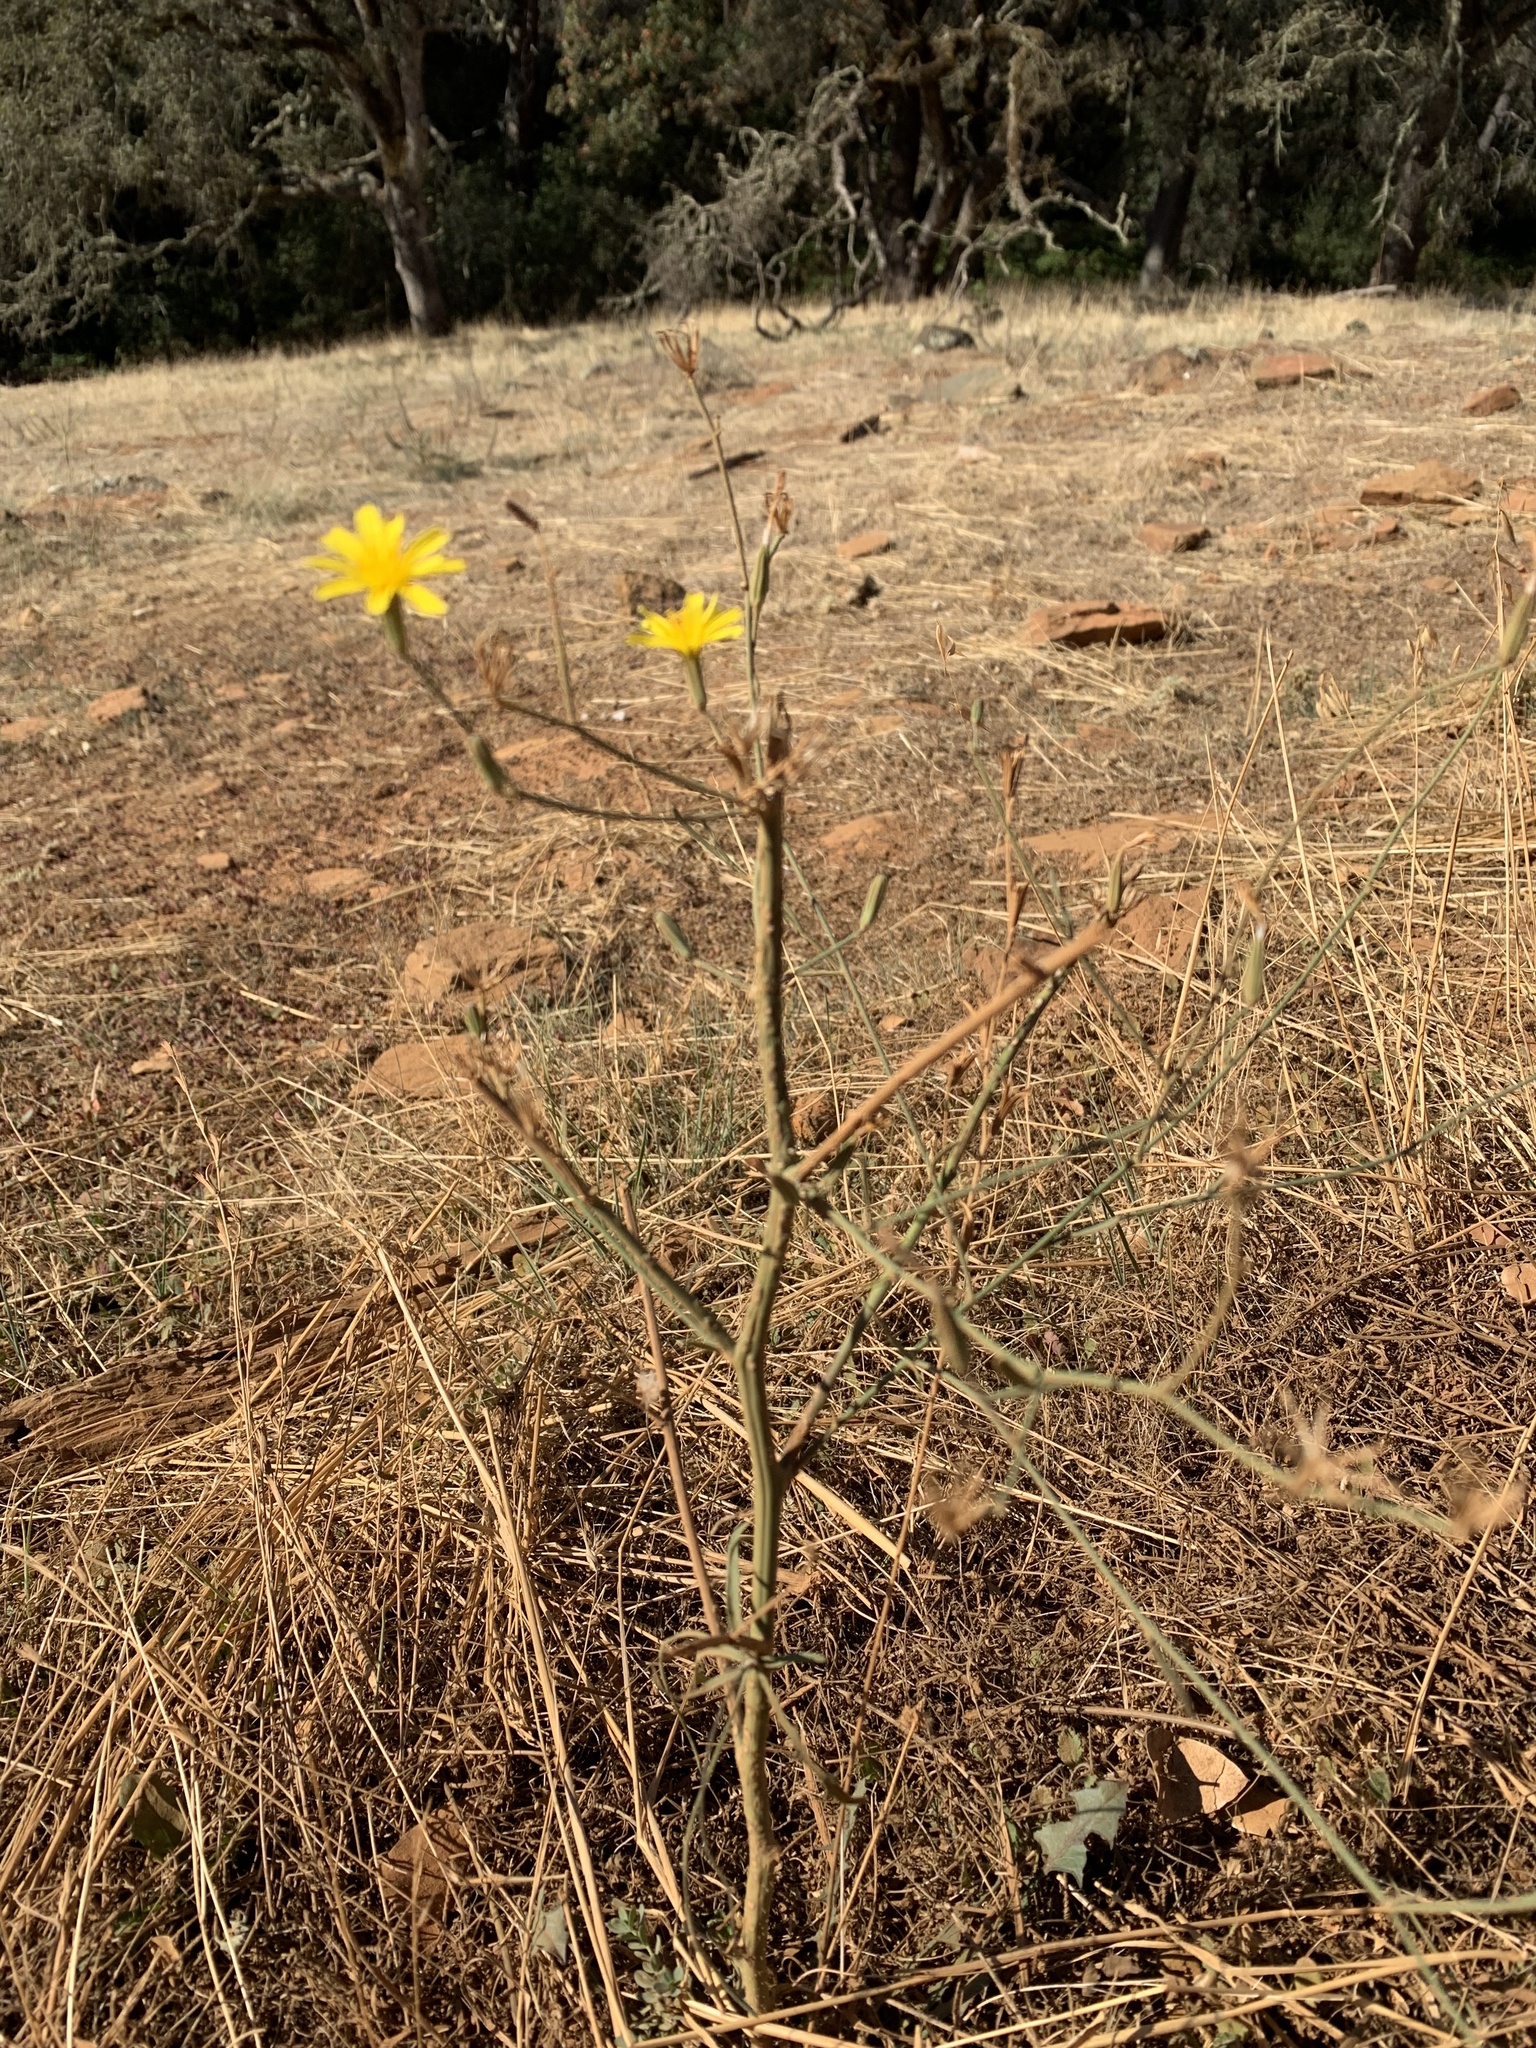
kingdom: Plantae
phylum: Tracheophyta
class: Magnoliopsida
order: Asterales
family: Asteraceae
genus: Chondrilla
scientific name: Chondrilla juncea
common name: Skeleton weed
